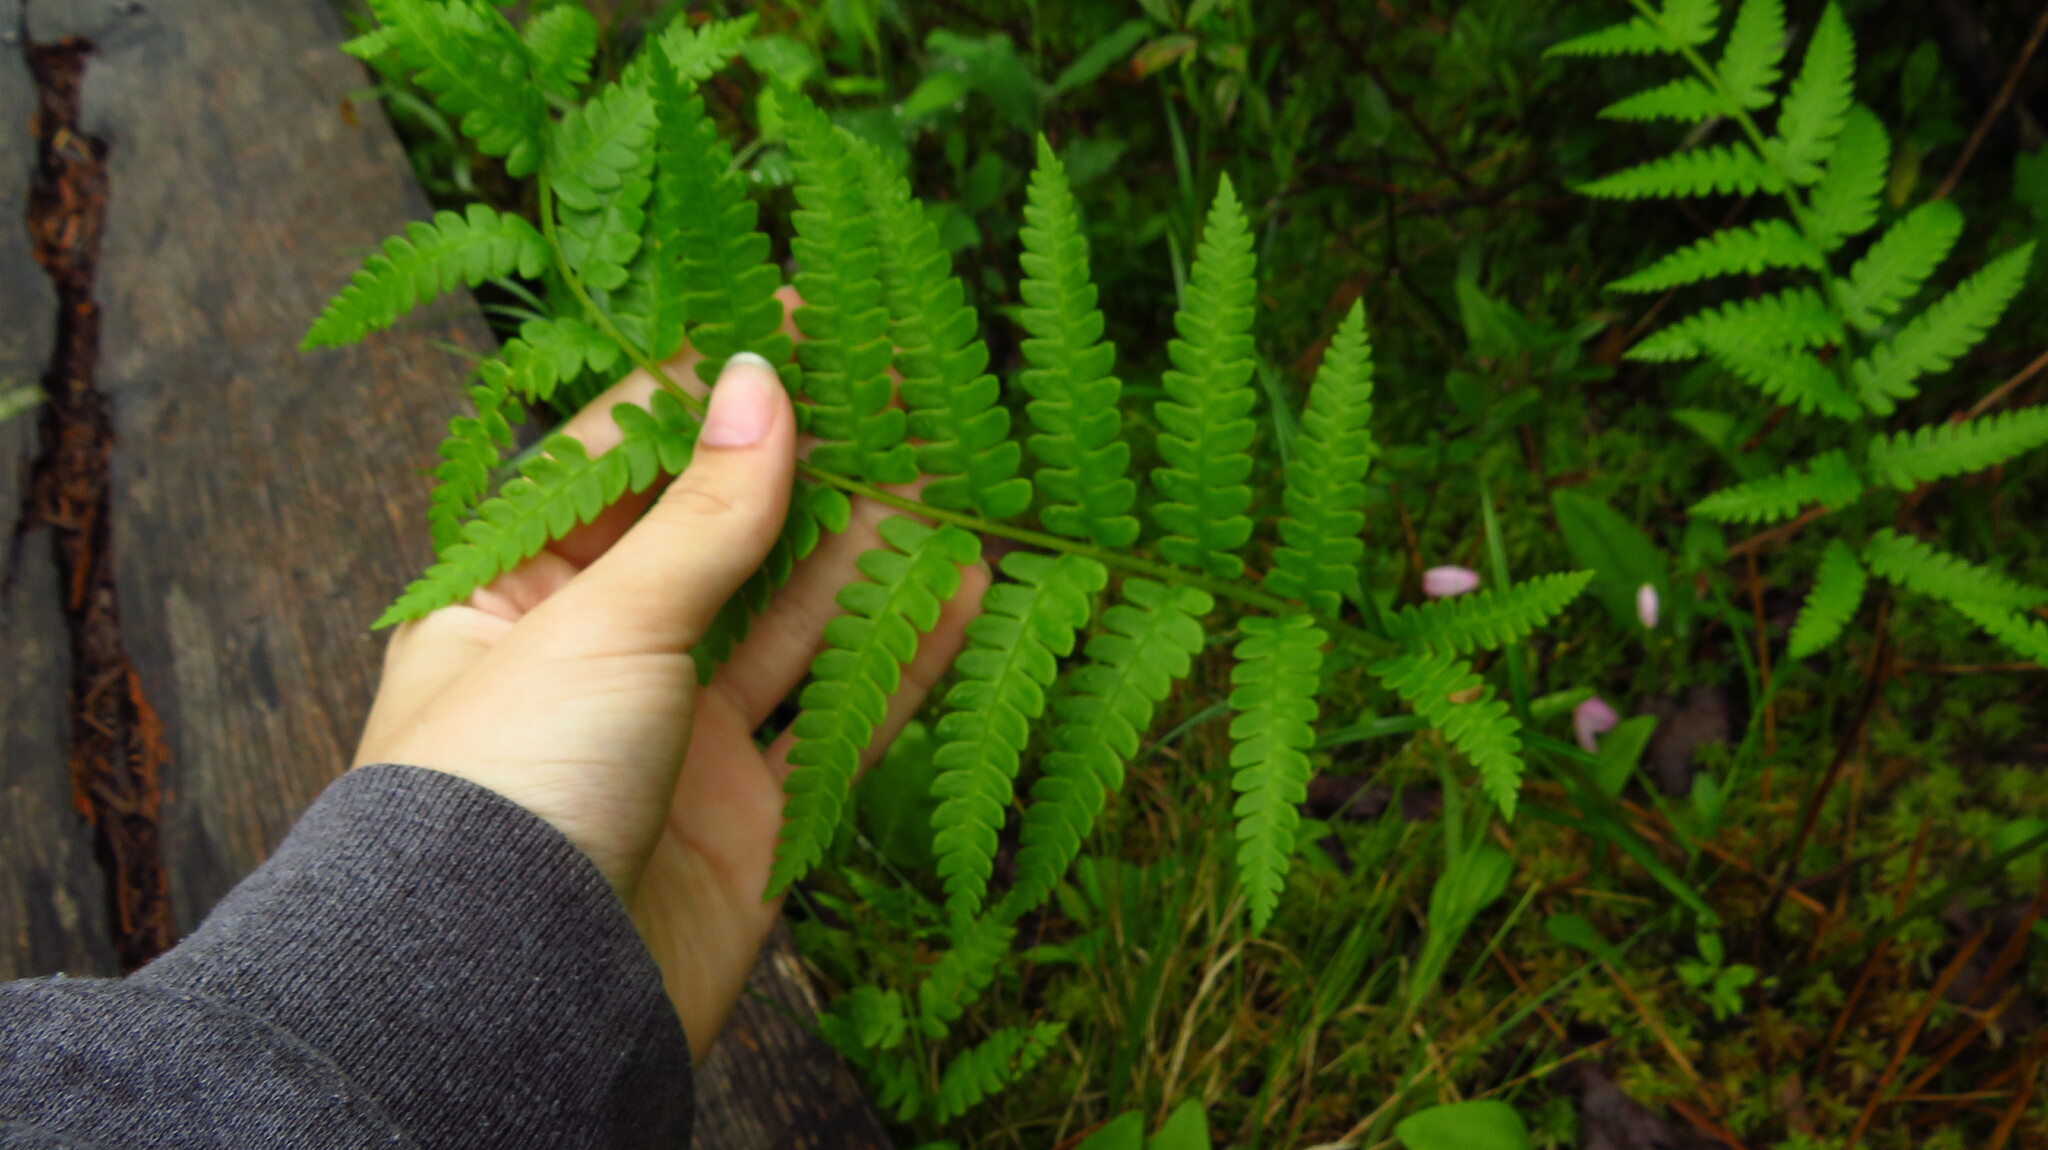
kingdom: Plantae
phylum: Tracheophyta
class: Polypodiopsida
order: Osmundales
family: Osmundaceae
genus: Osmundastrum
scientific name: Osmundastrum cinnamomeum
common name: Cinnamon fern
